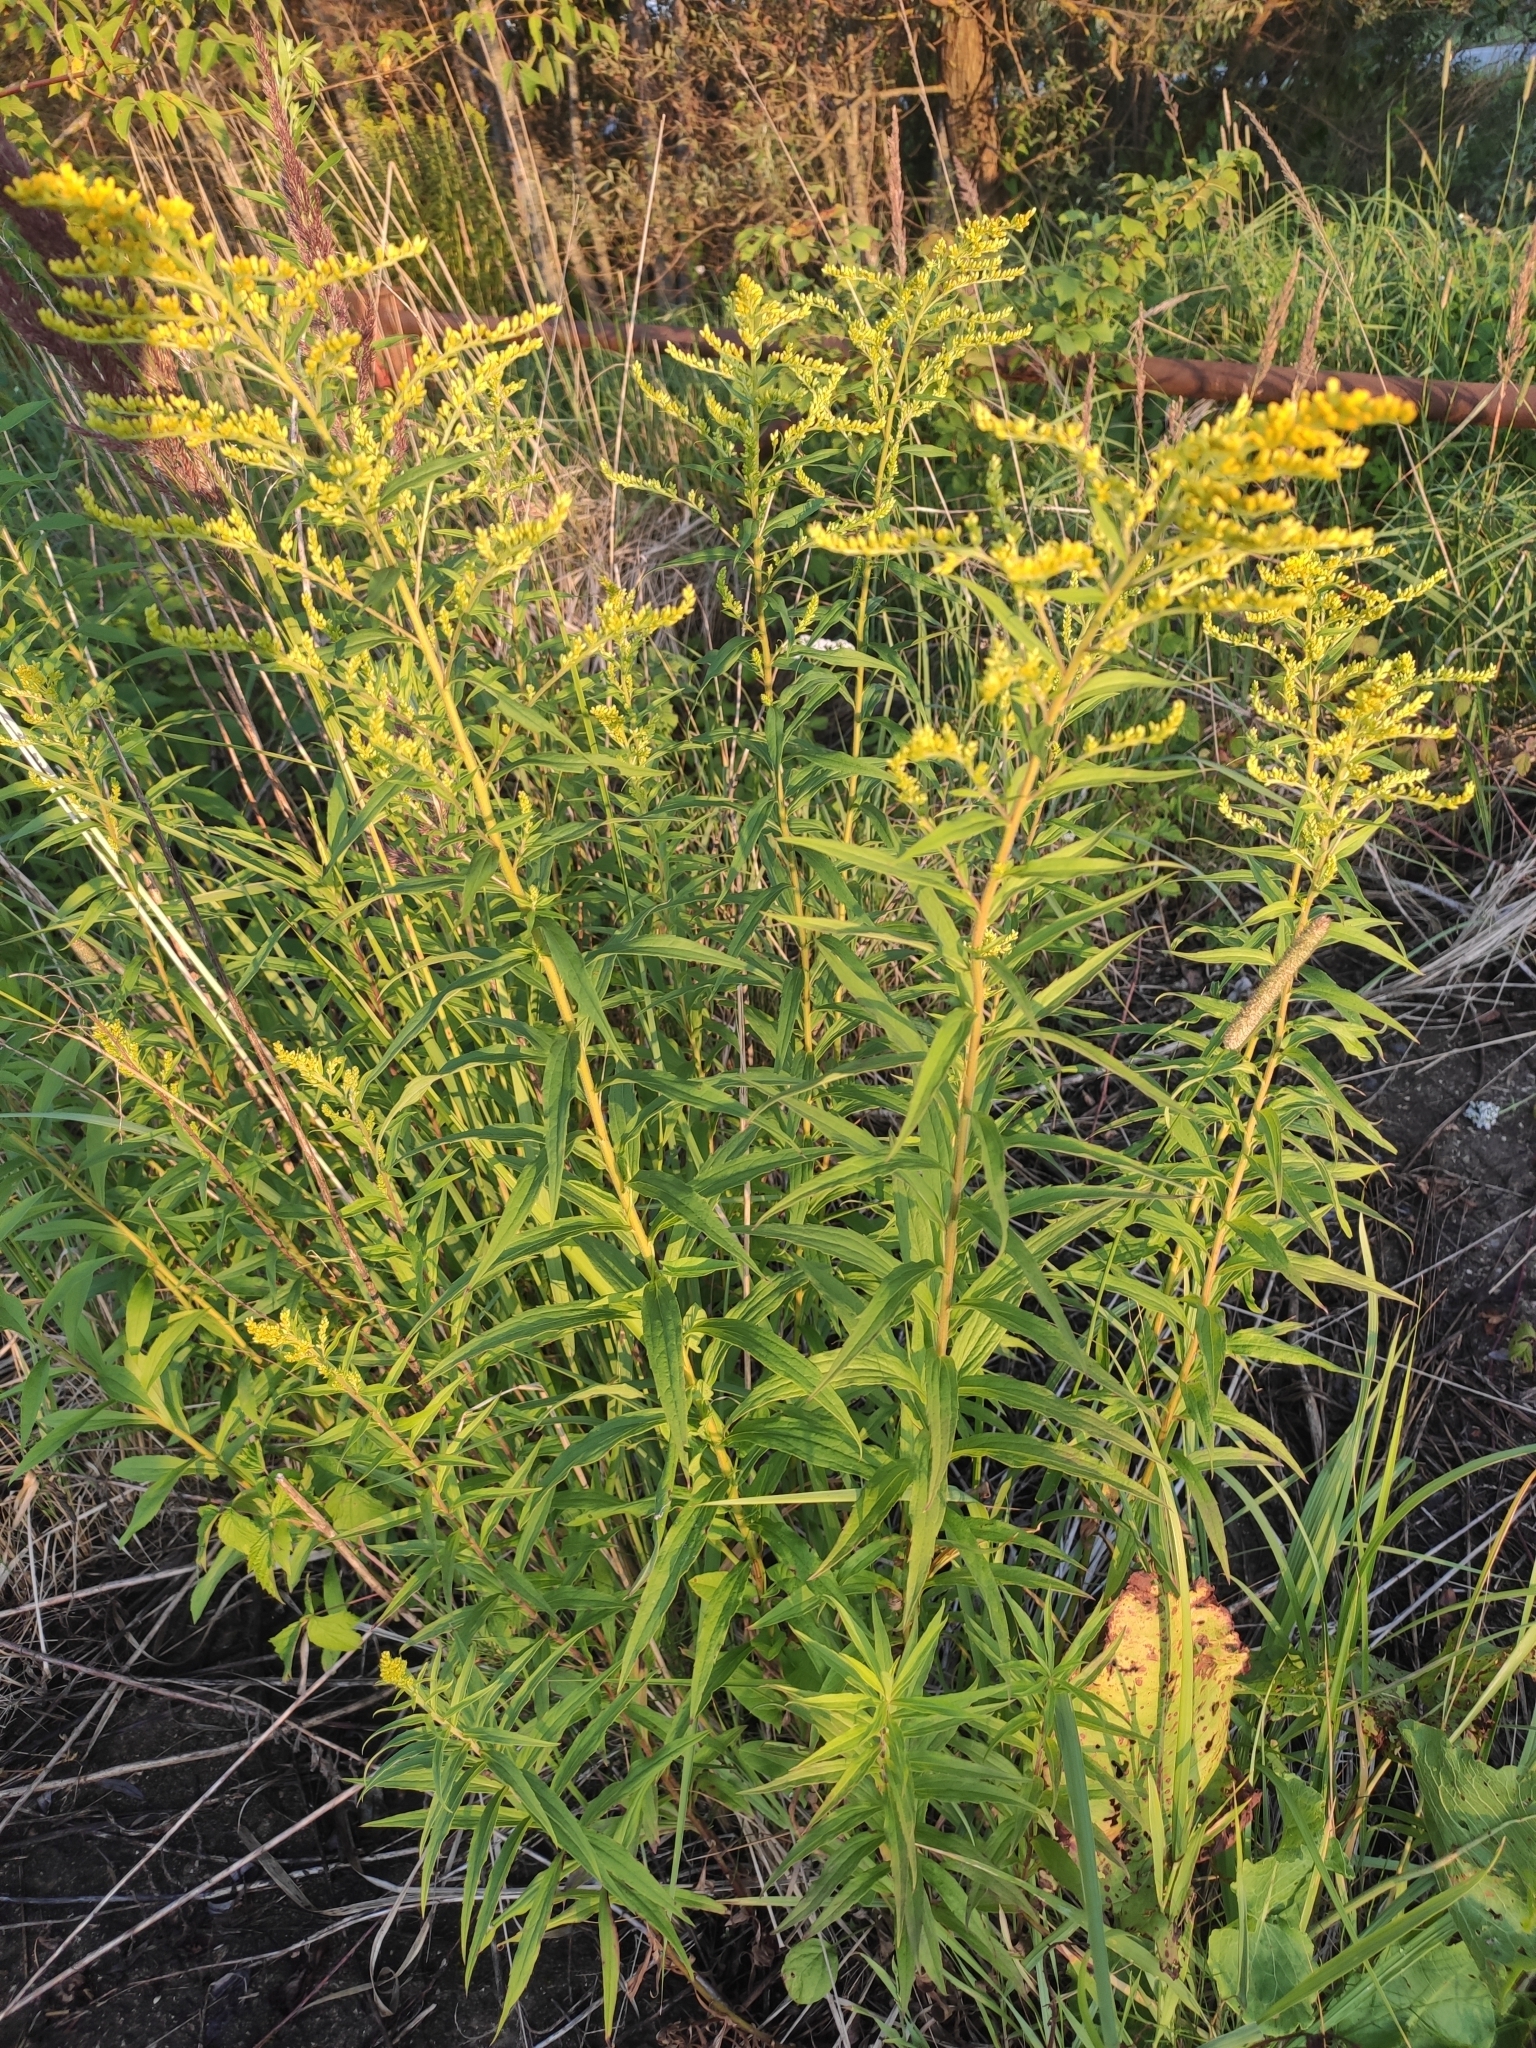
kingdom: Plantae
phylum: Tracheophyta
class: Magnoliopsida
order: Asterales
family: Asteraceae
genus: Solidago
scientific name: Solidago canadensis
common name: Canada goldenrod
